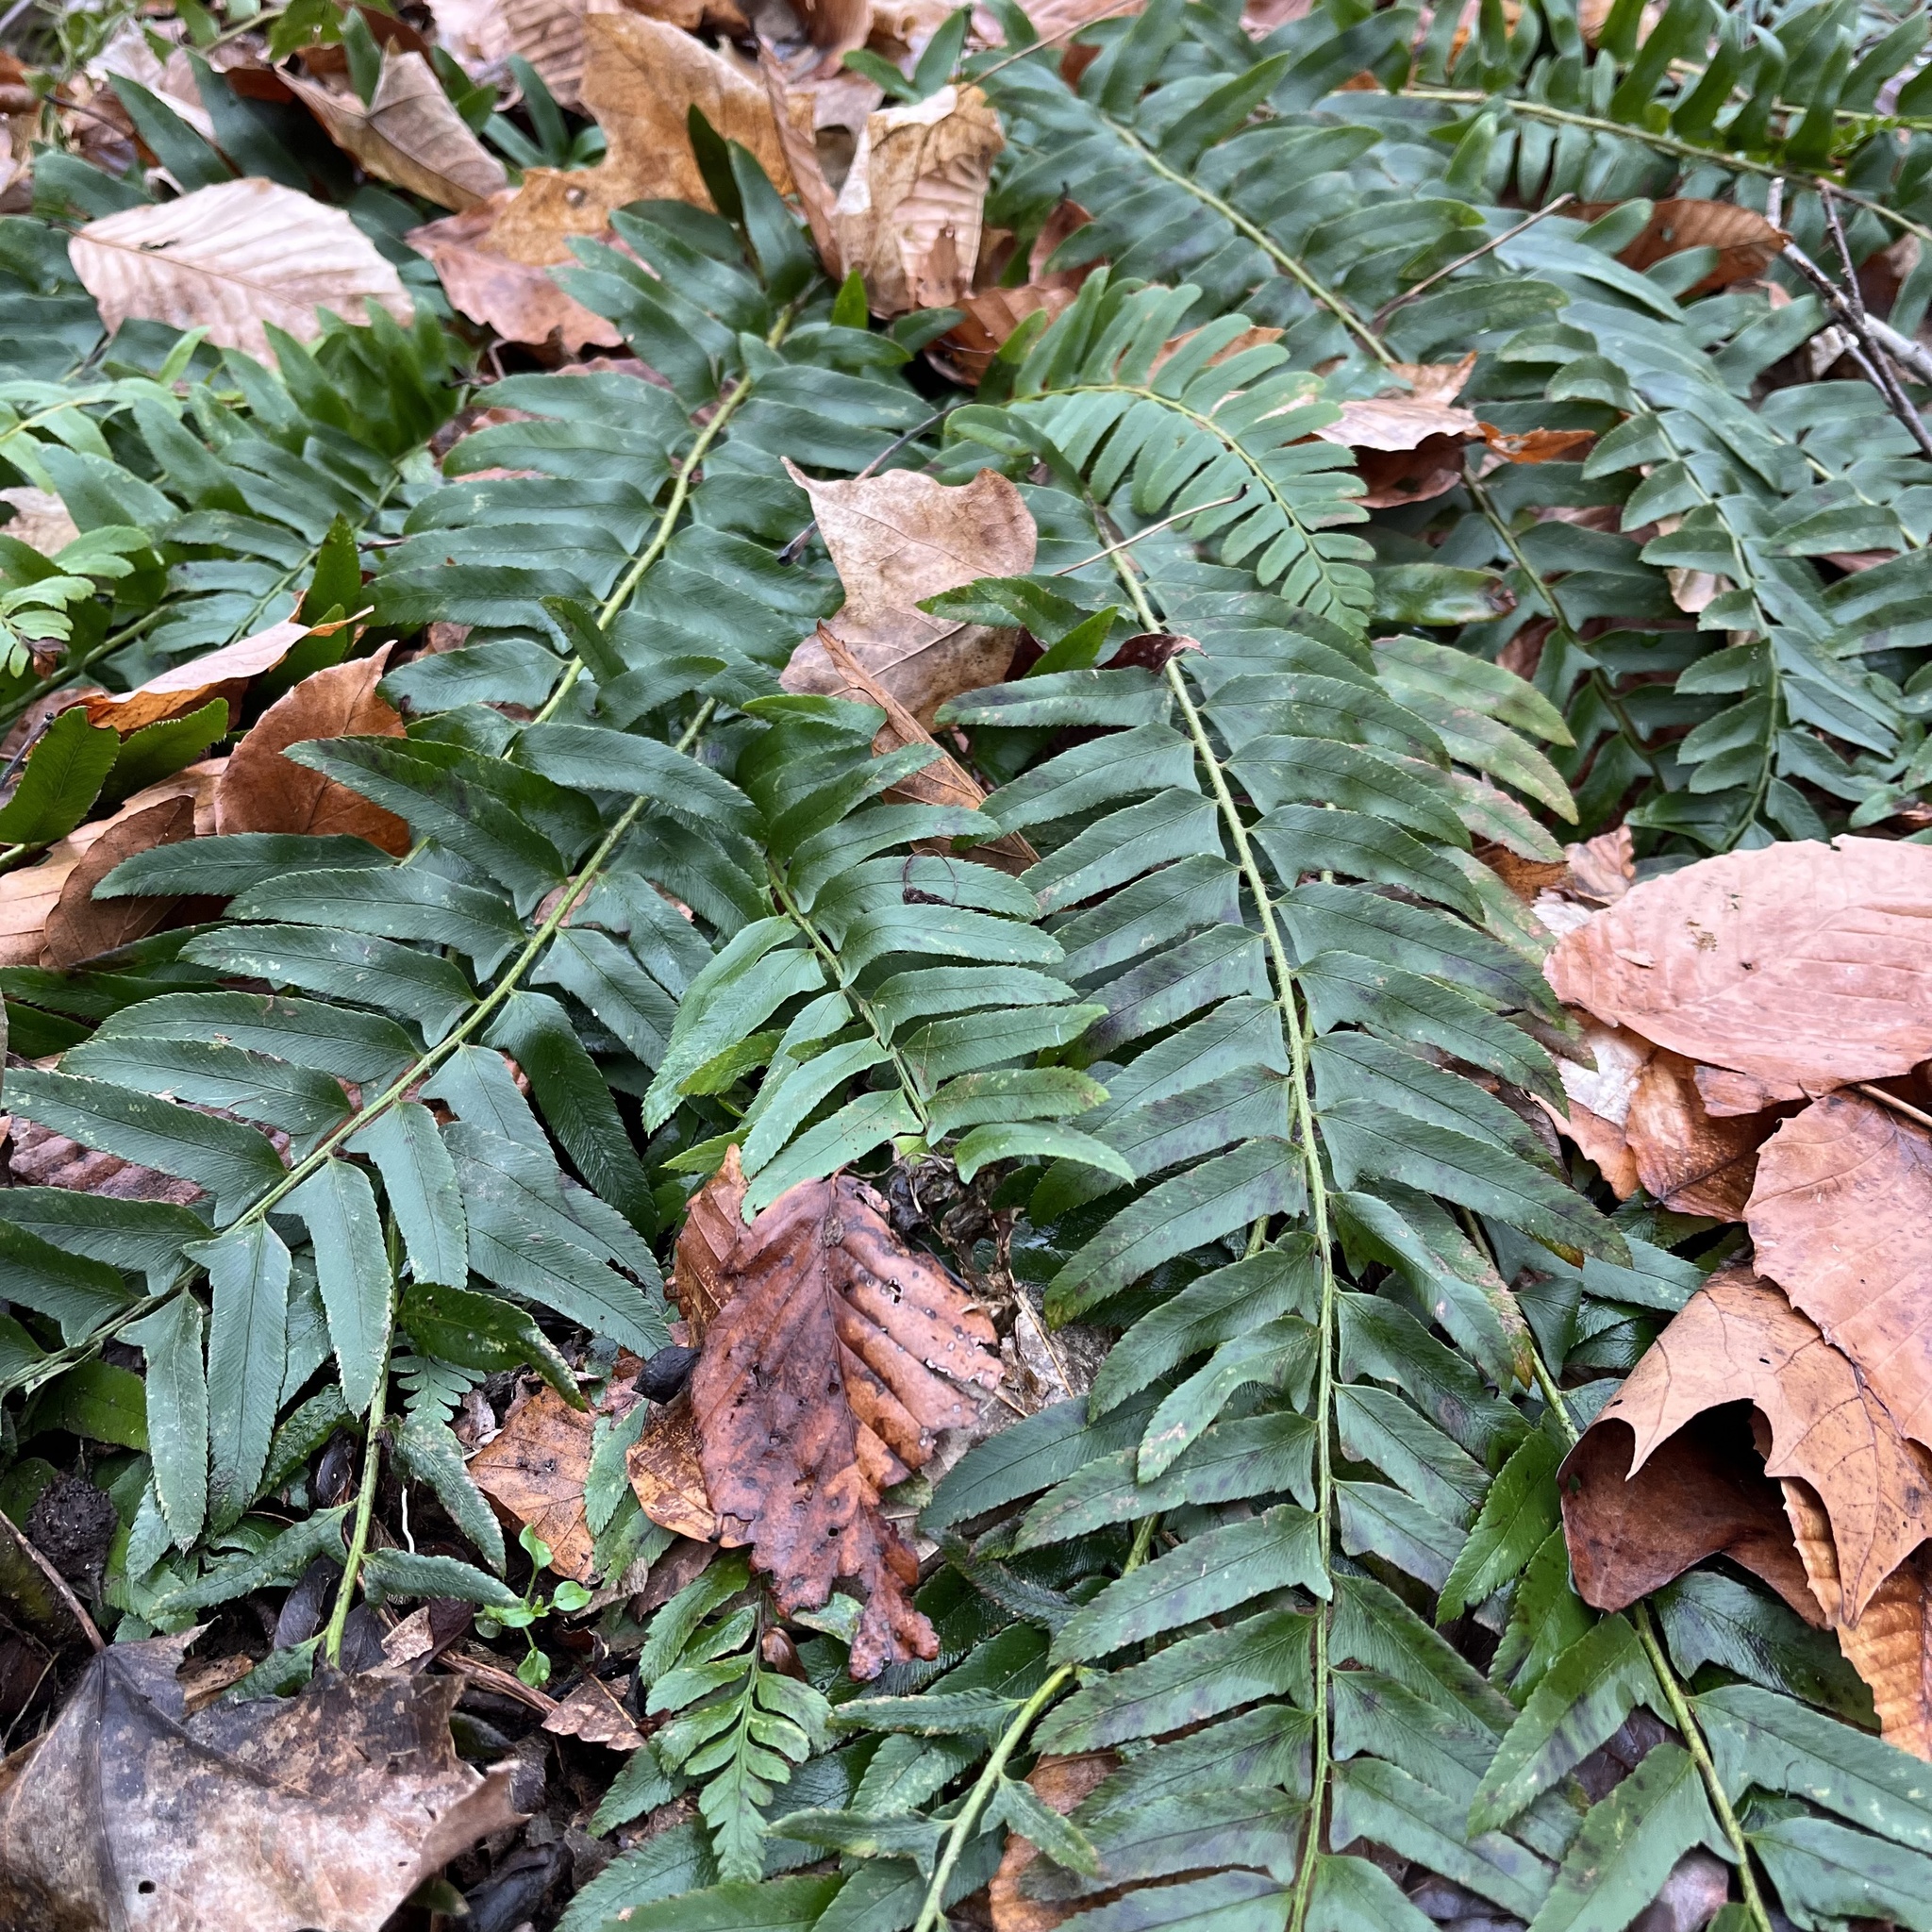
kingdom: Plantae
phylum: Tracheophyta
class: Polypodiopsida
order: Polypodiales
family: Dryopteridaceae
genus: Polystichum
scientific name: Polystichum acrostichoides
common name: Christmas fern
